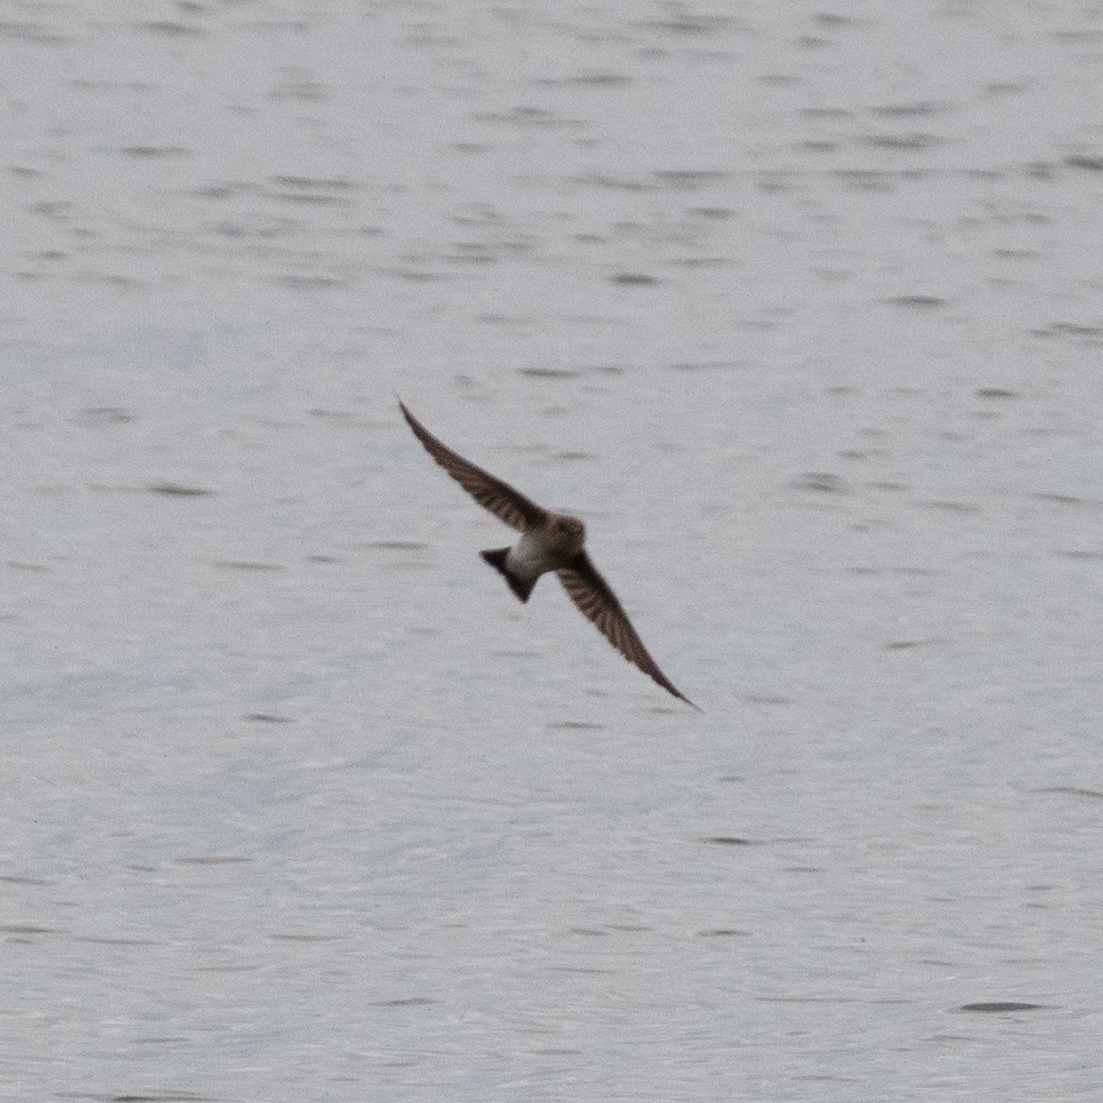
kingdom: Animalia
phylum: Chordata
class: Aves
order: Passeriformes
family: Hirundinidae
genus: Stelgidopteryx
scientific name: Stelgidopteryx serripennis
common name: Northern rough-winged swallow
